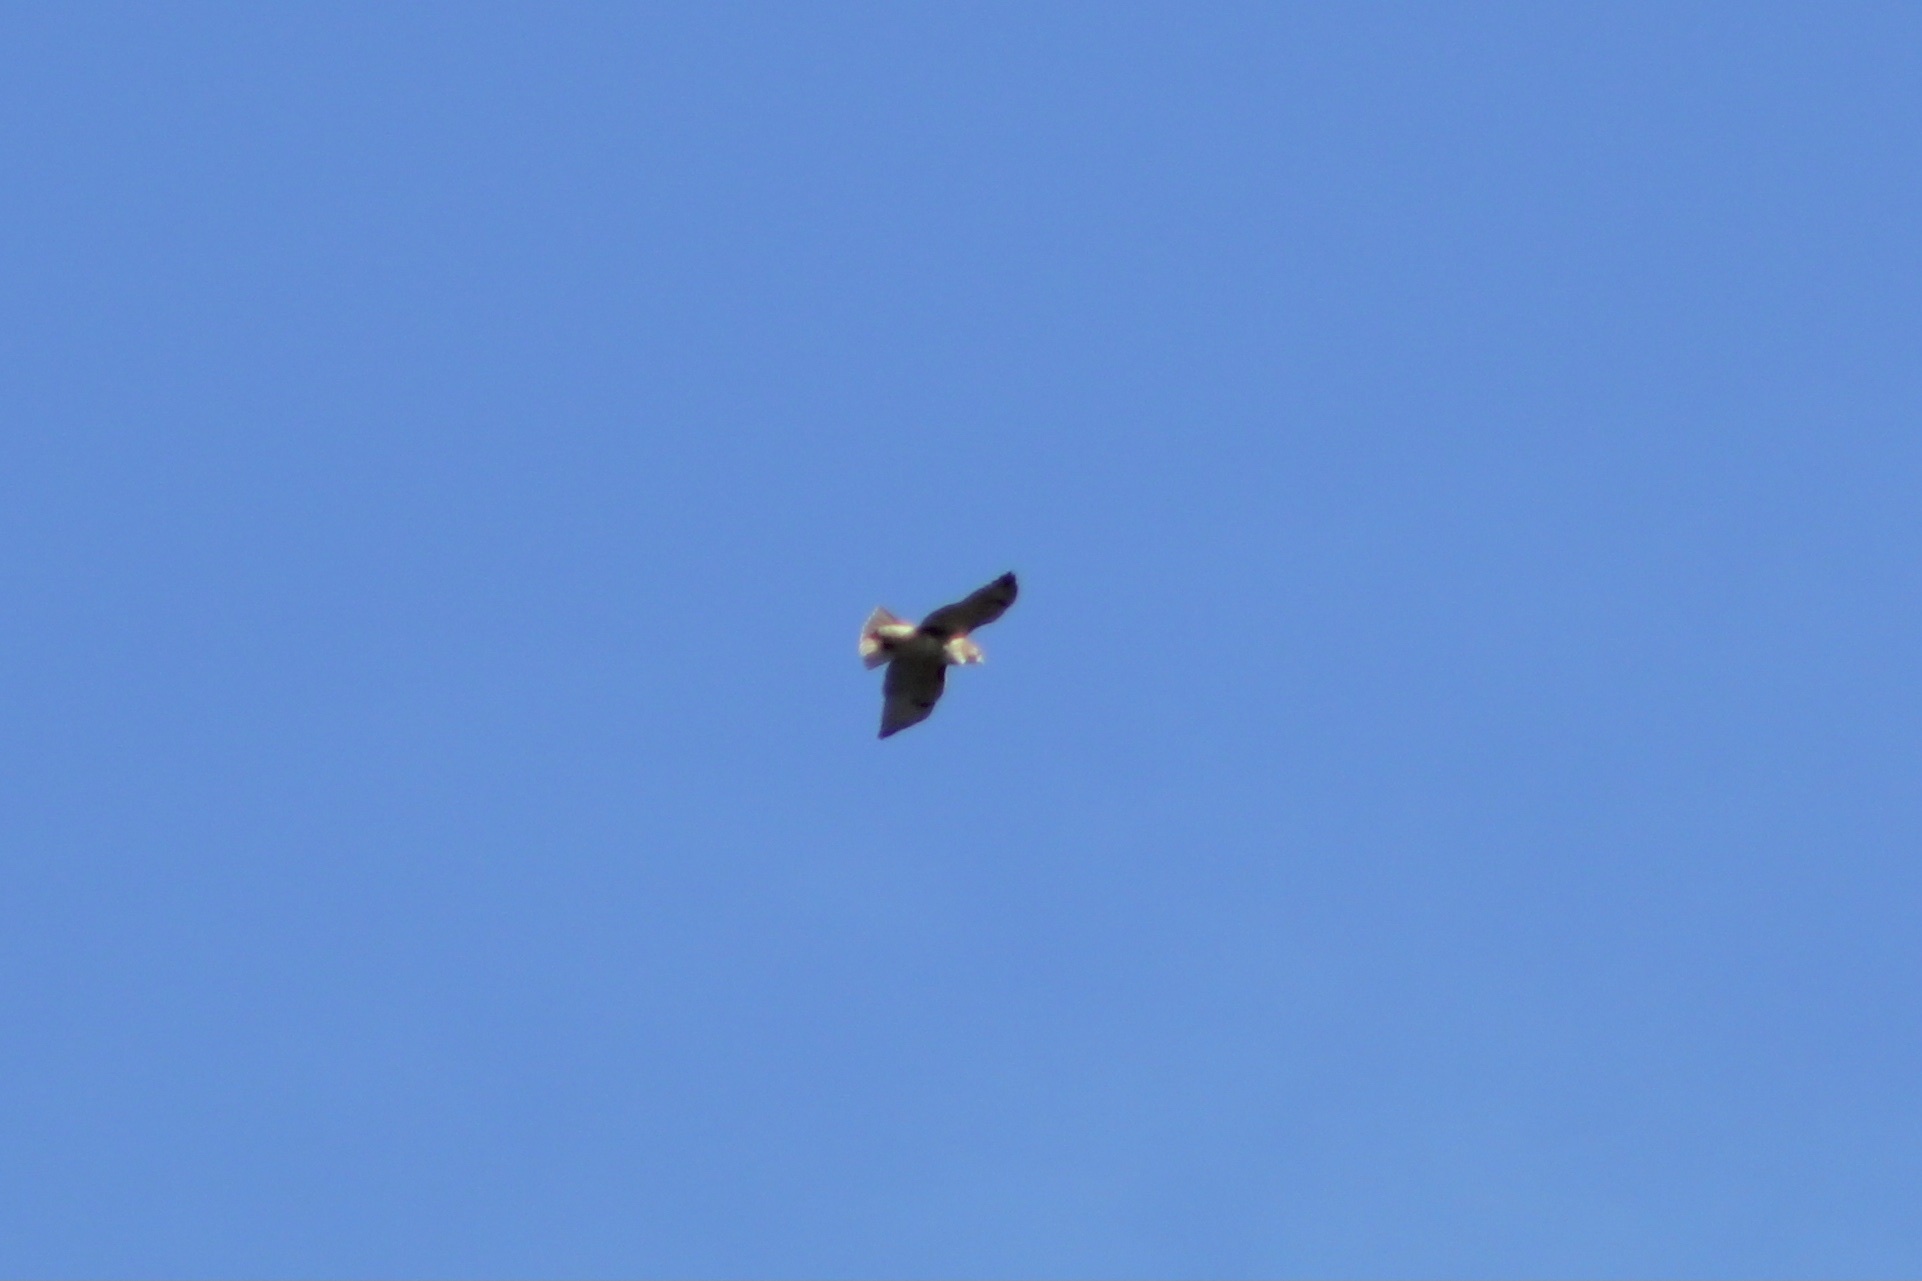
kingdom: Animalia
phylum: Chordata
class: Aves
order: Accipitriformes
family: Accipitridae
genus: Buteo
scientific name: Buteo jamaicensis
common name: Red-tailed hawk
